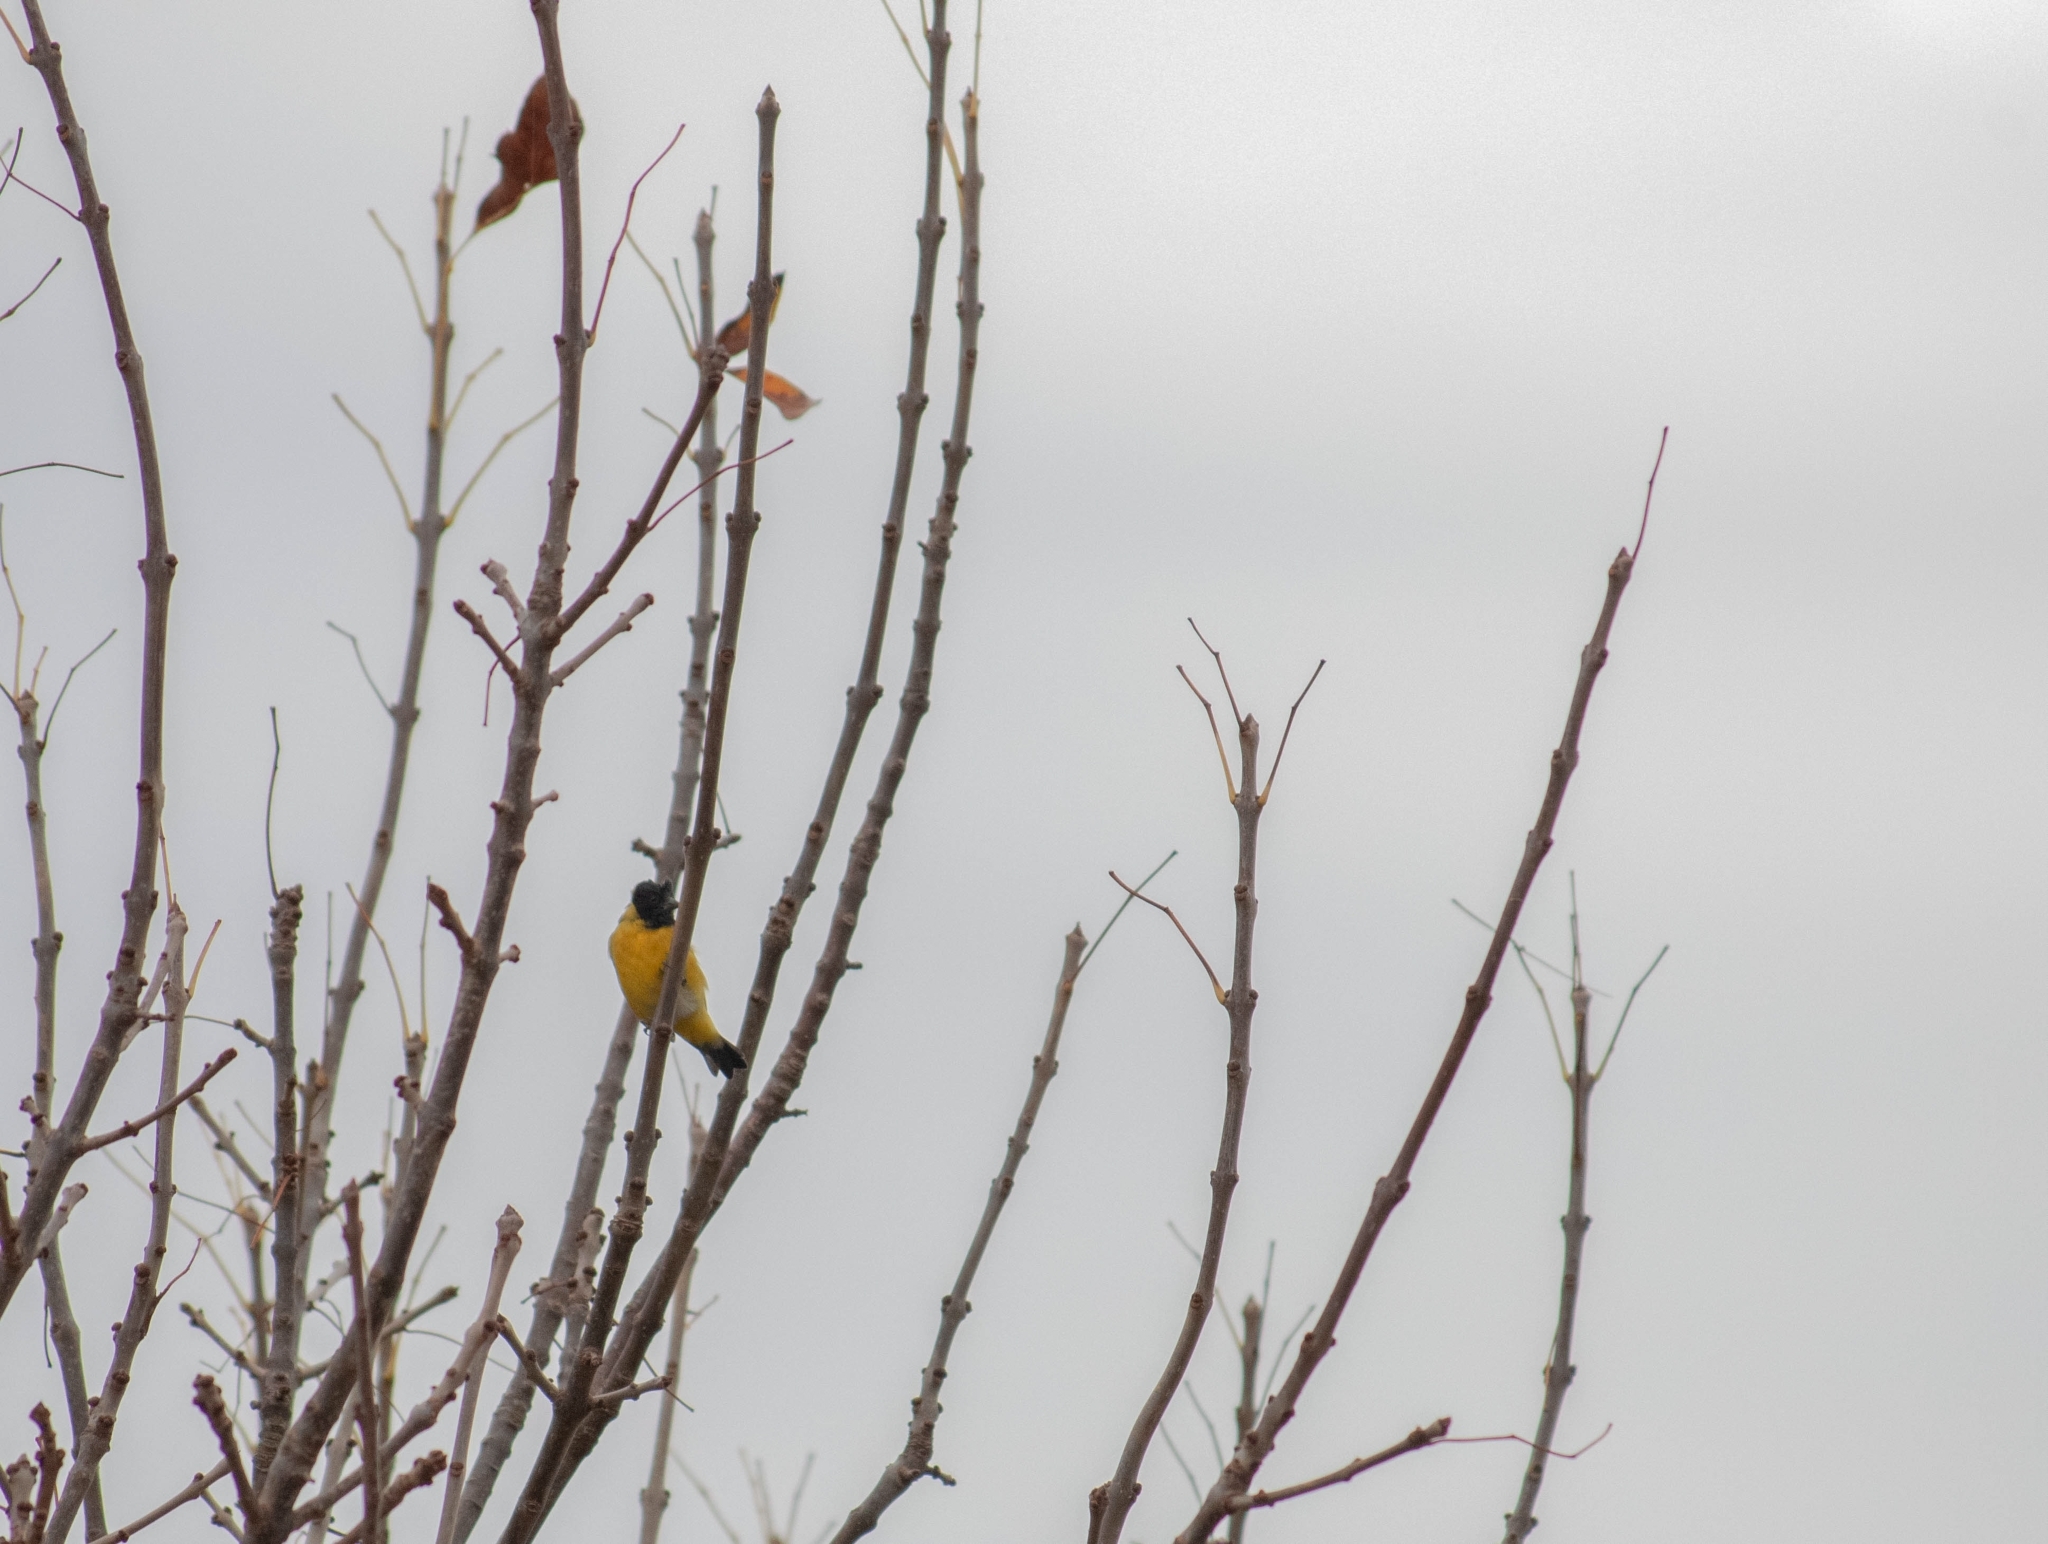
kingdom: Animalia
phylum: Chordata
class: Aves
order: Passeriformes
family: Fringillidae
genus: Spinus
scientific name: Spinus magellanicus
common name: Hooded siskin
